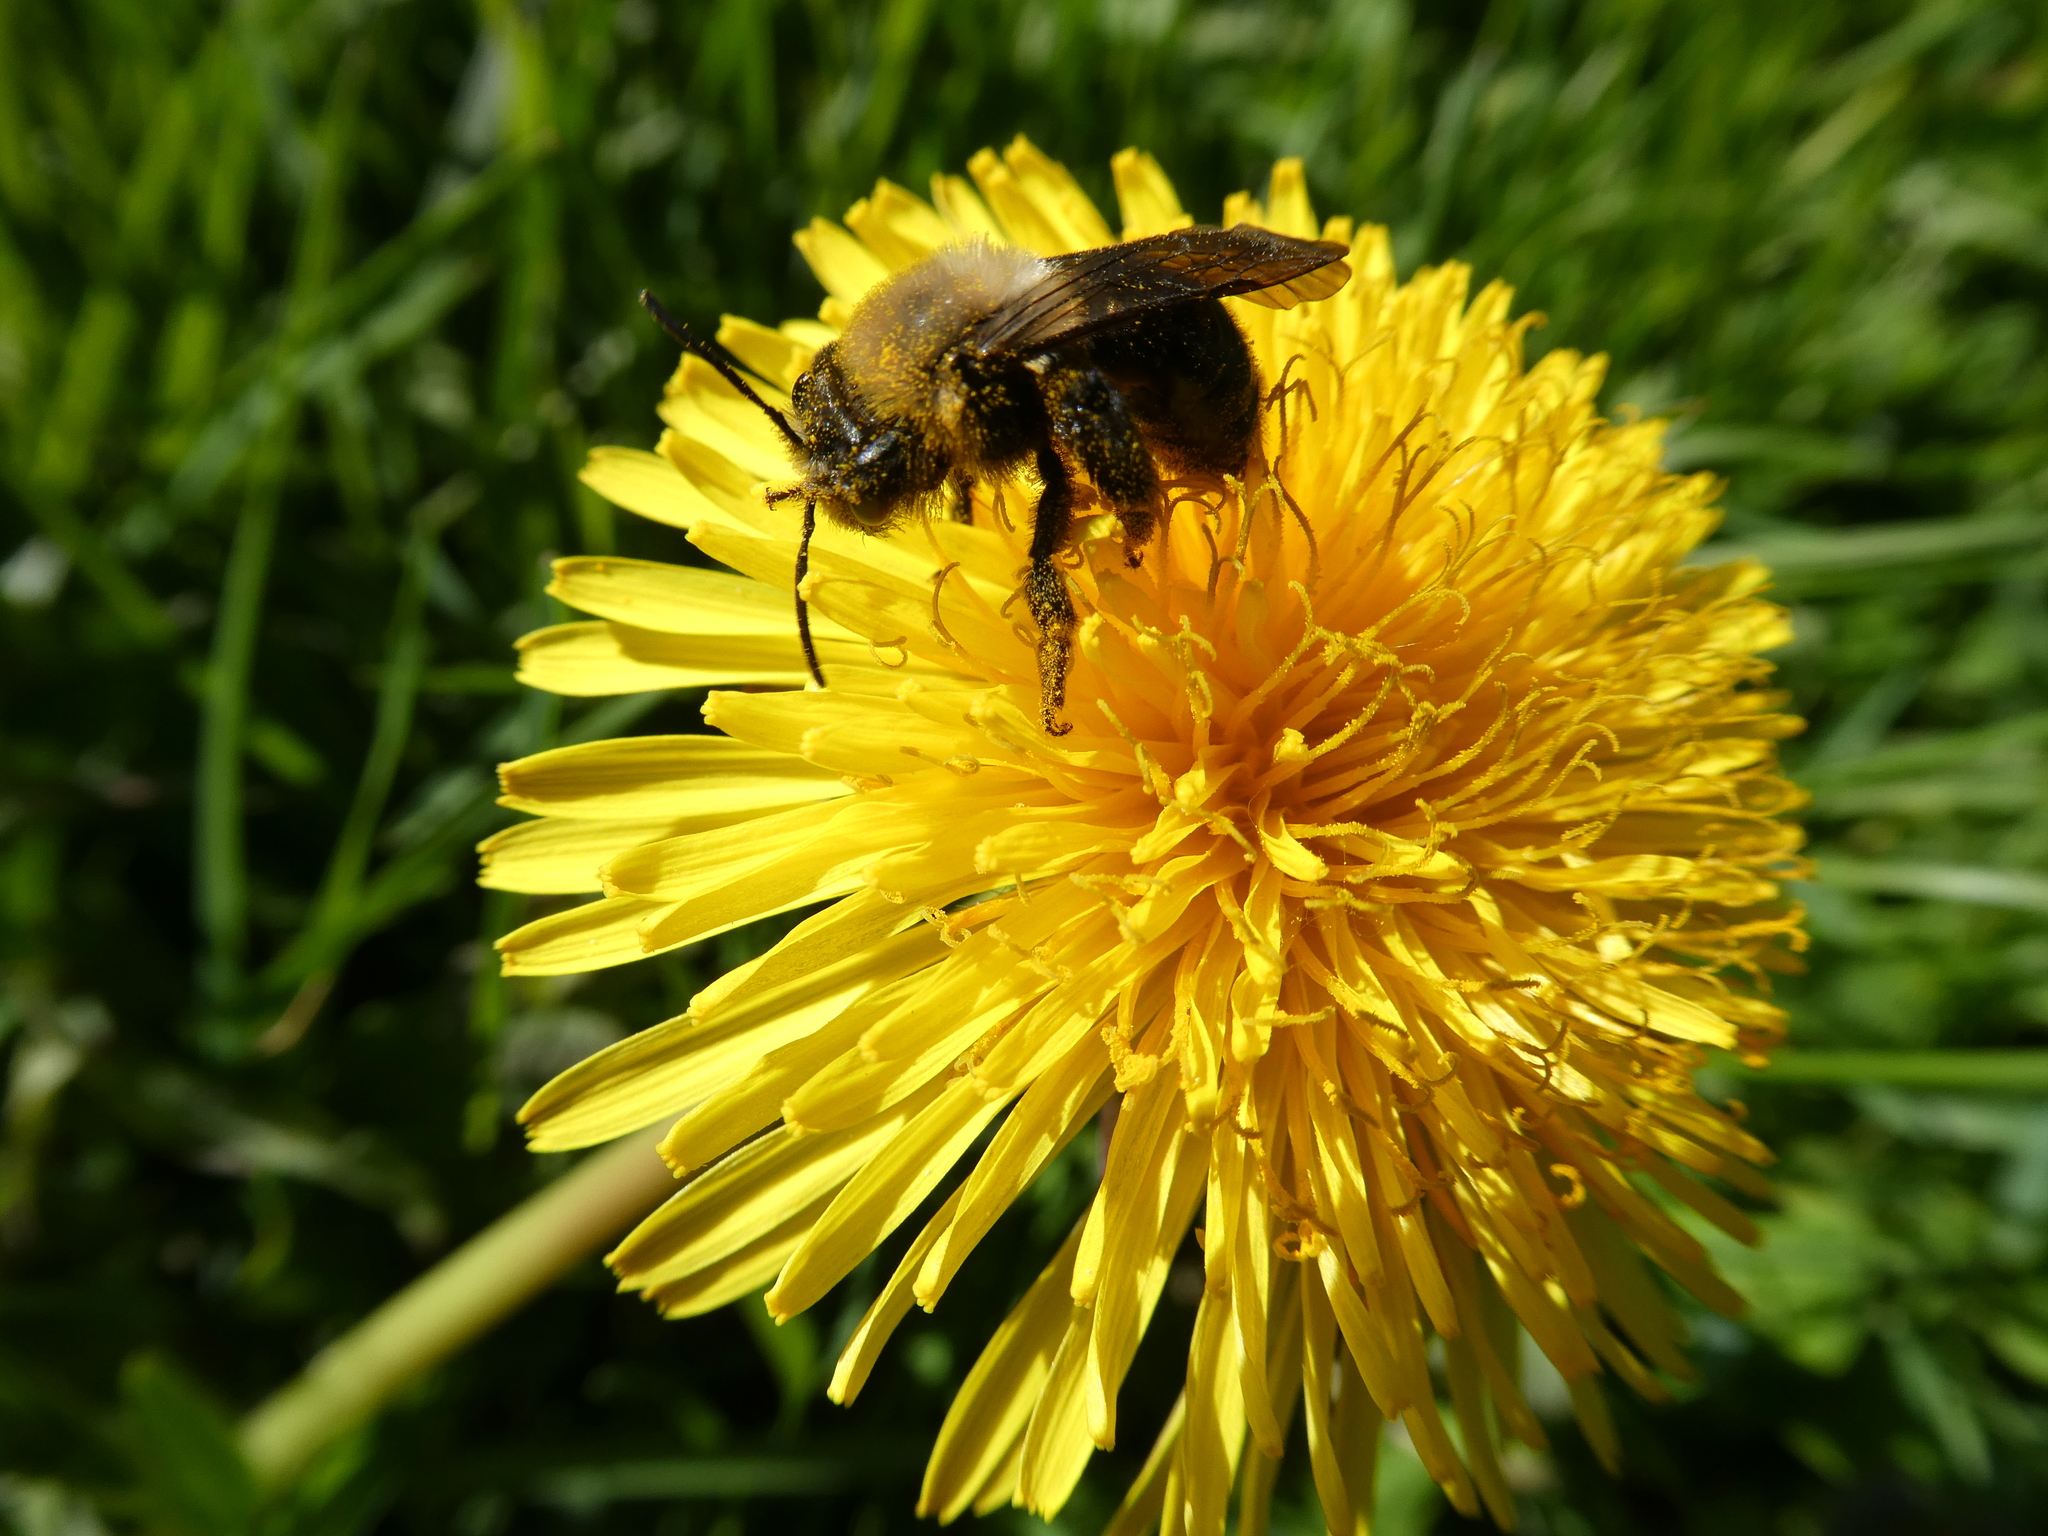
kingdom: Animalia
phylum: Arthropoda
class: Insecta
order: Hymenoptera
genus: Melandrena
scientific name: Melandrena
